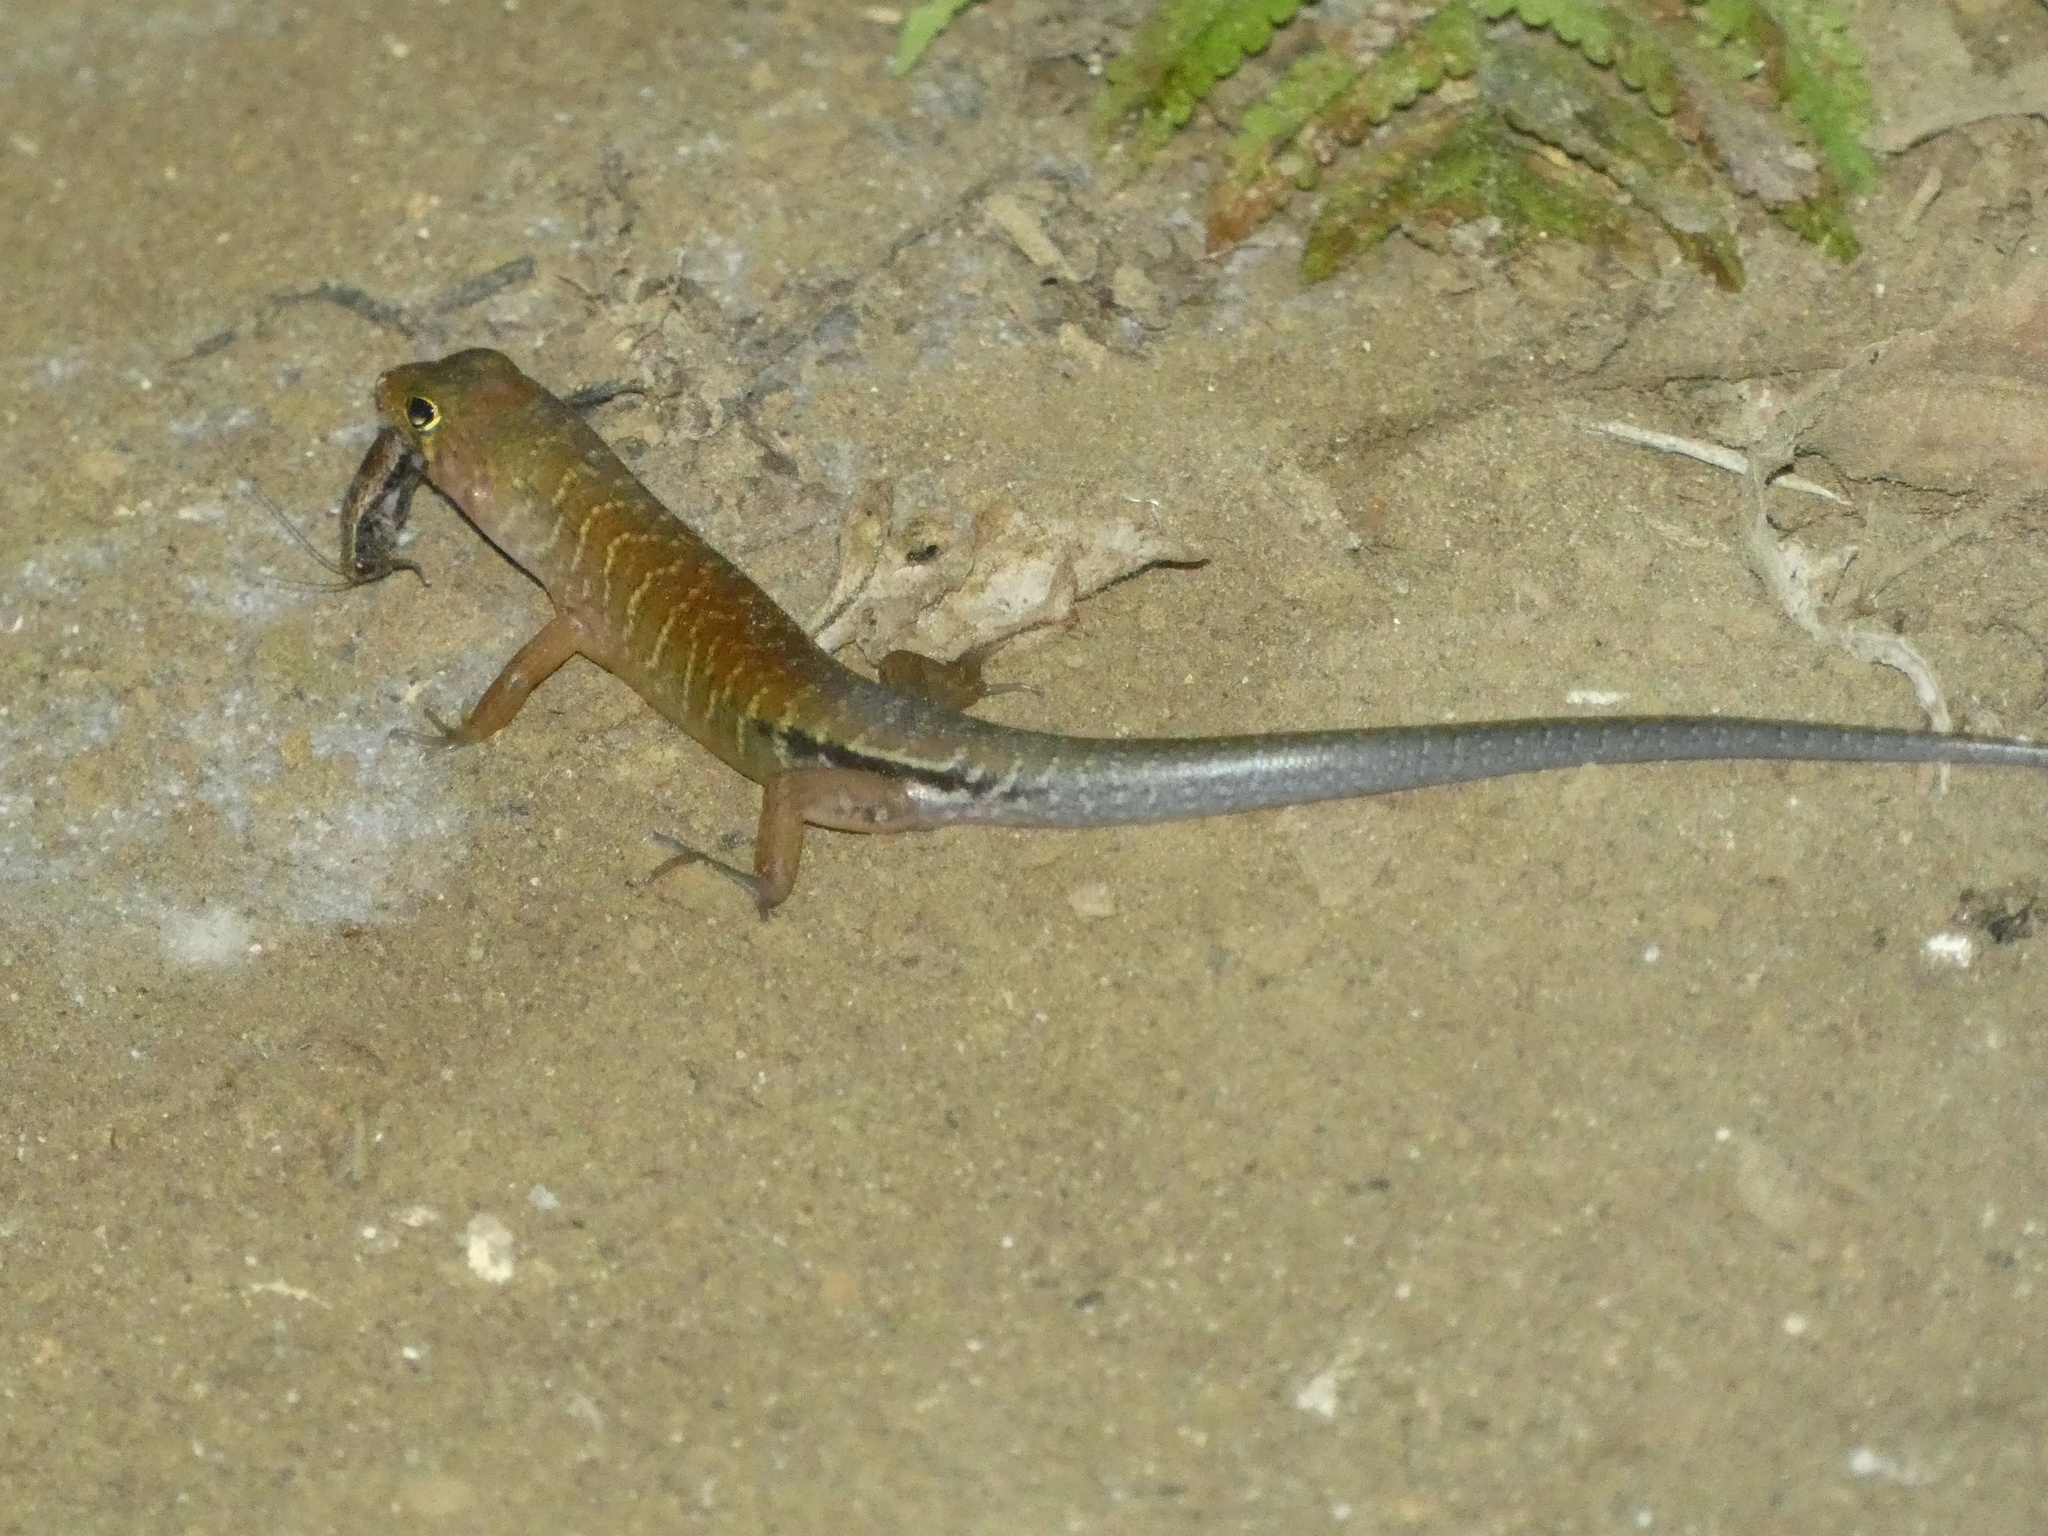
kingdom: Animalia
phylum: Chordata
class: Squamata
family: Scincidae
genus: Pinoyscincus
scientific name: Pinoyscincus jagori
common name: Jagor's sphenomorphus
